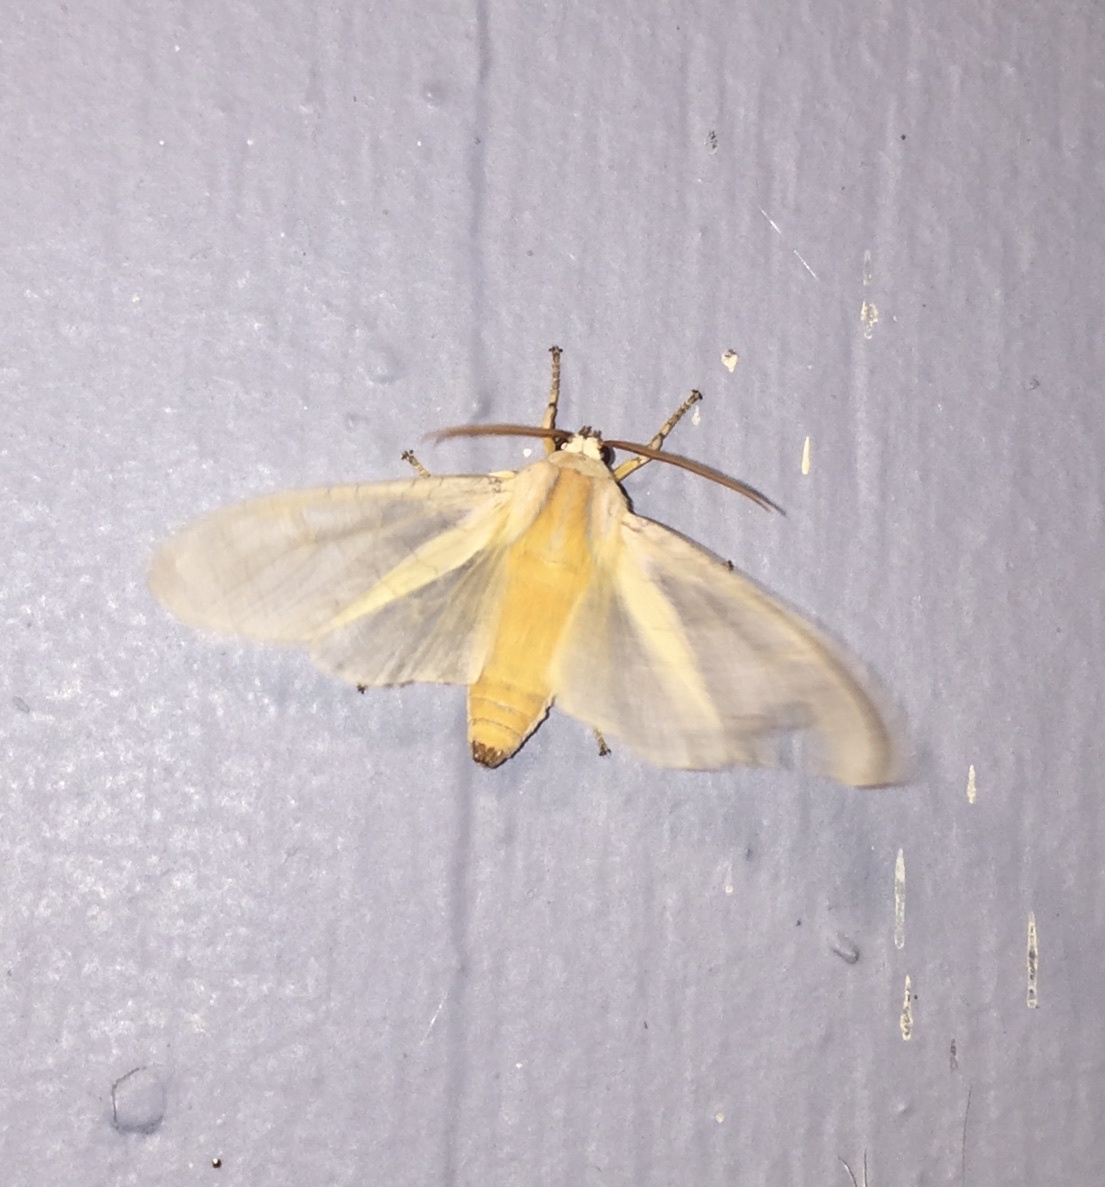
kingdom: Animalia
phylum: Arthropoda
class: Insecta
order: Lepidoptera
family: Erebidae
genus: Halysidota
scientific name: Halysidota tessellaris
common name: Banded tussock moth
